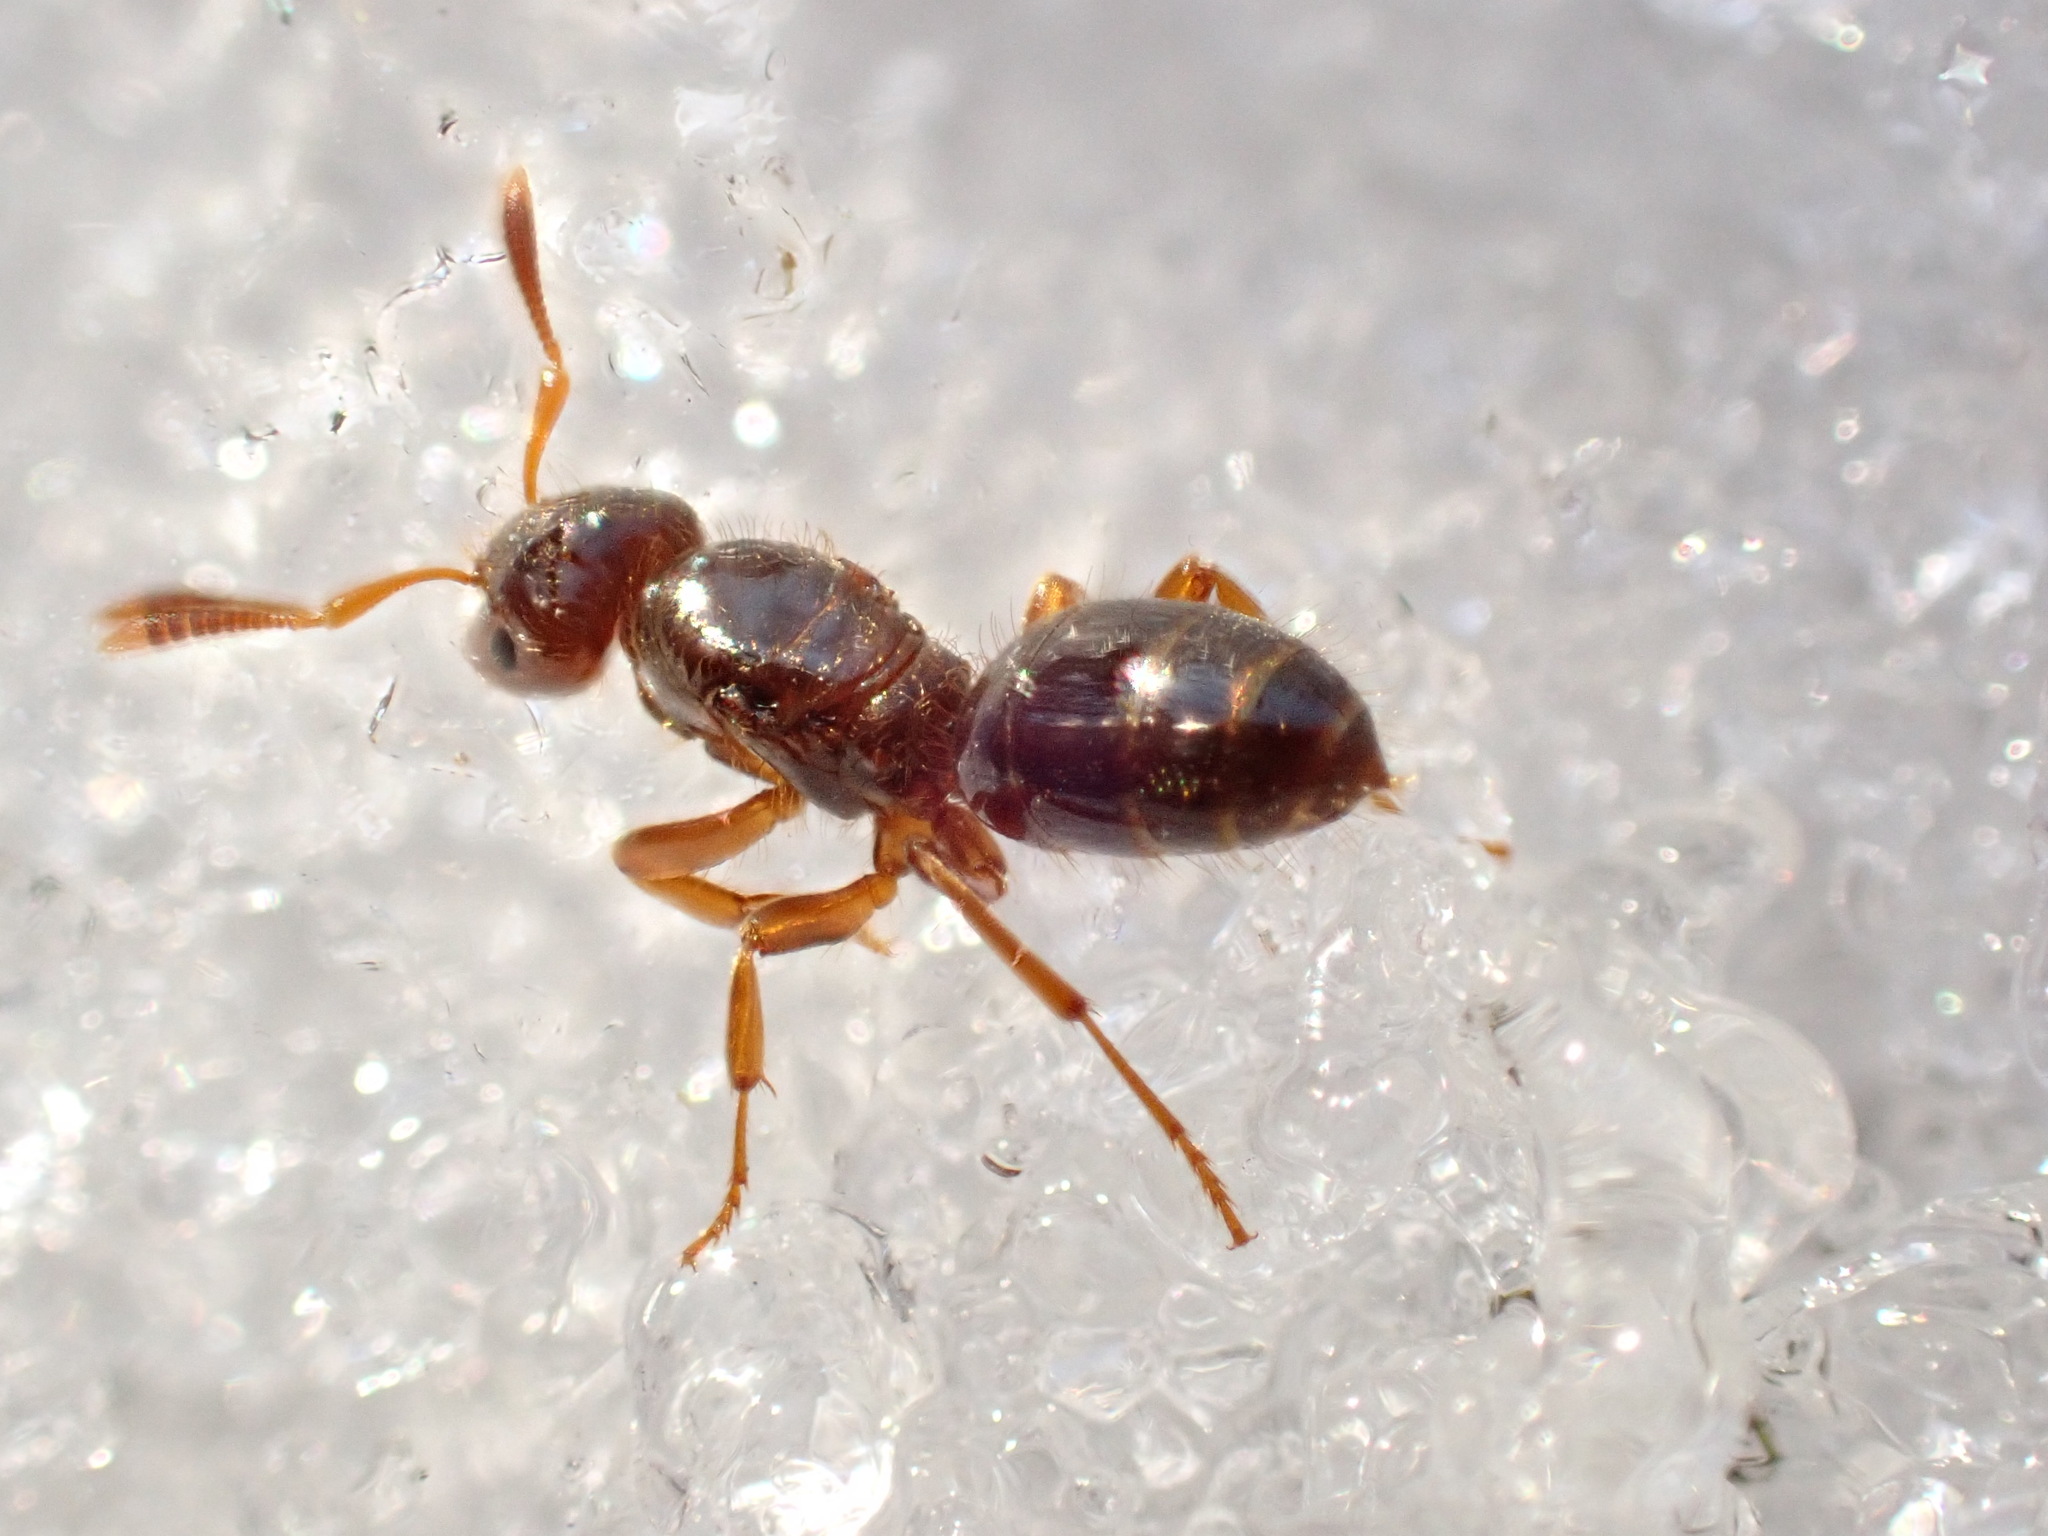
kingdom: Animalia
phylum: Arthropoda
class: Insecta
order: Hymenoptera
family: Formicidae
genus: Lasius
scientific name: Lasius claviger
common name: Common citronella ant
